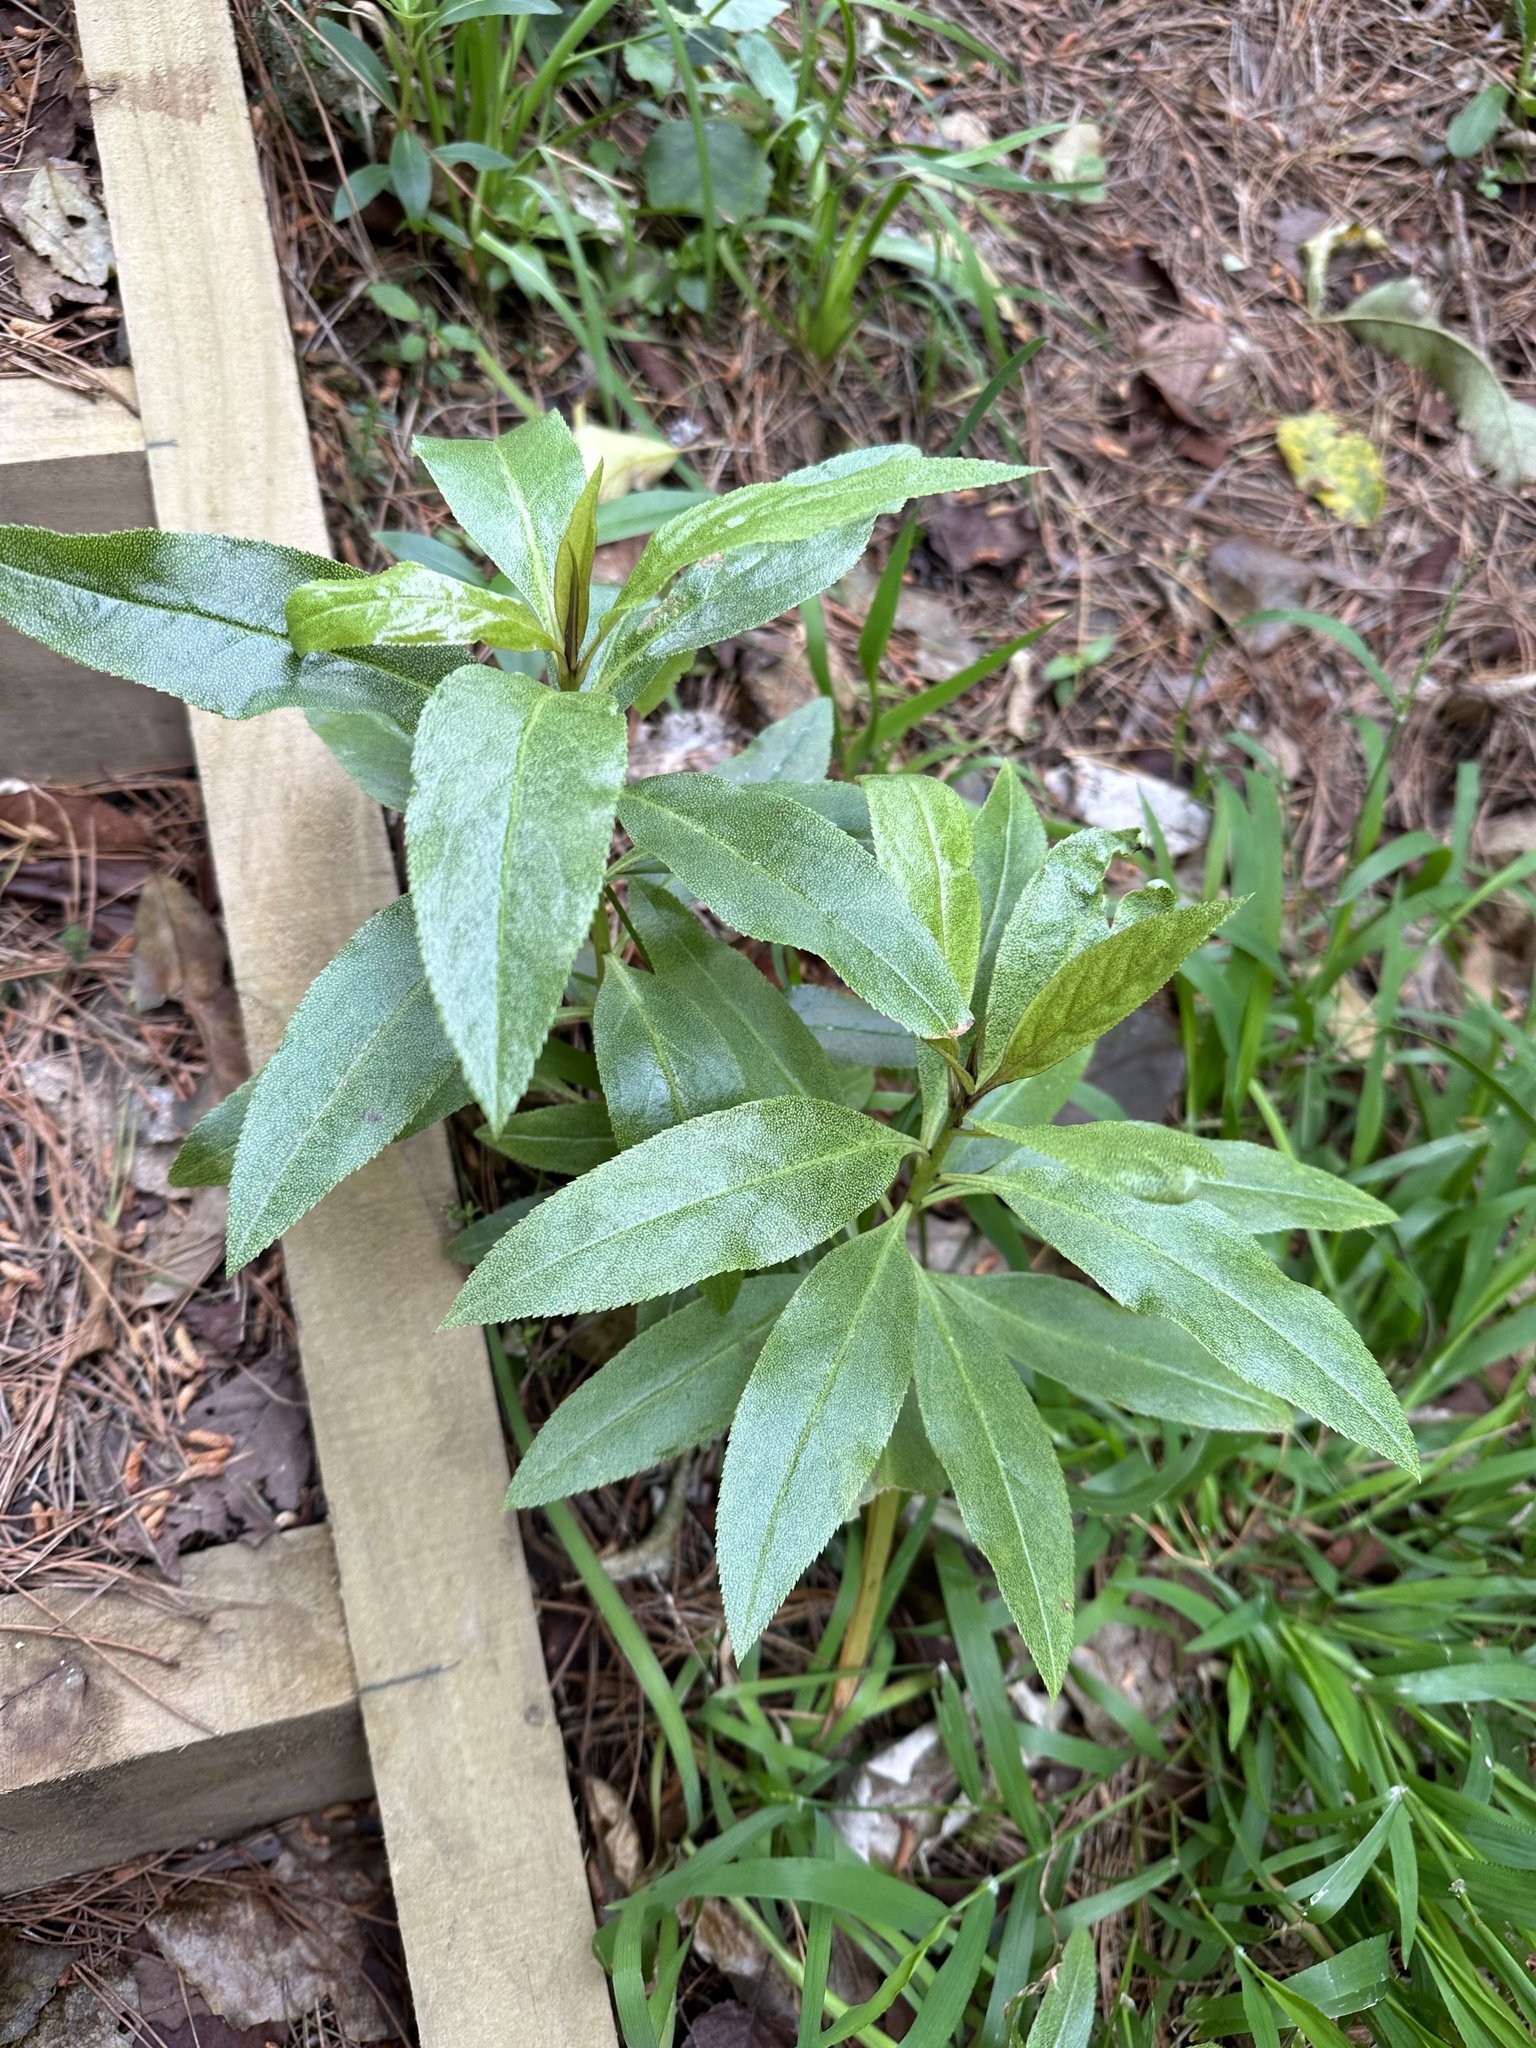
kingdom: Plantae
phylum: Tracheophyta
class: Magnoliopsida
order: Lamiales
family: Scrophulariaceae
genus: Myoporum
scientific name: Myoporum laetum
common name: Ngaio tree
